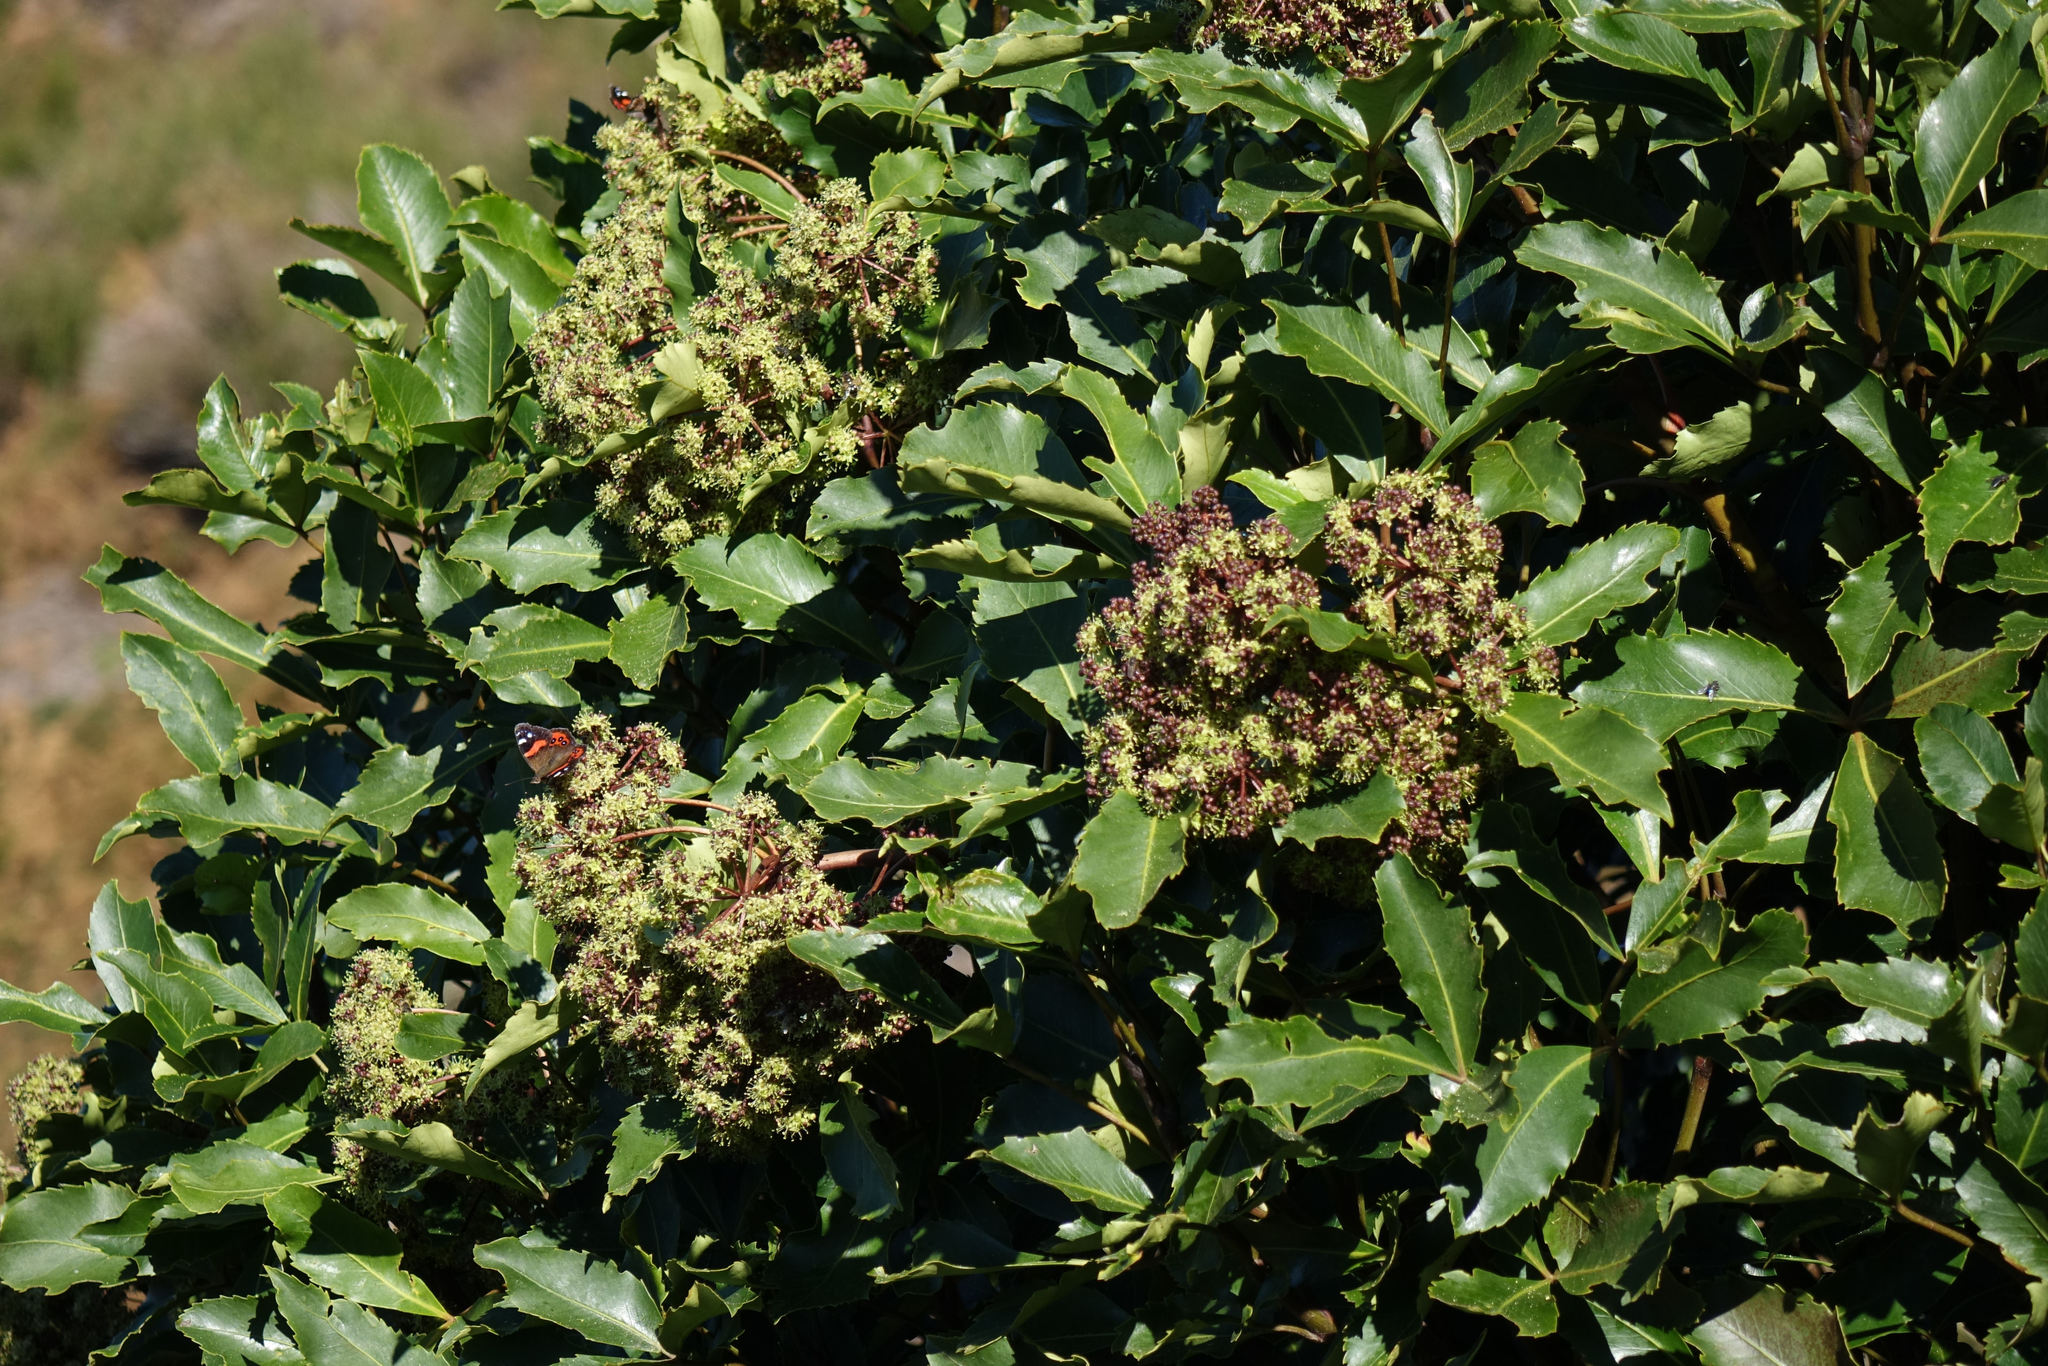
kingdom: Plantae
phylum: Tracheophyta
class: Magnoliopsida
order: Apiales
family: Araliaceae
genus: Neopanax
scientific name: Neopanax colensoi
